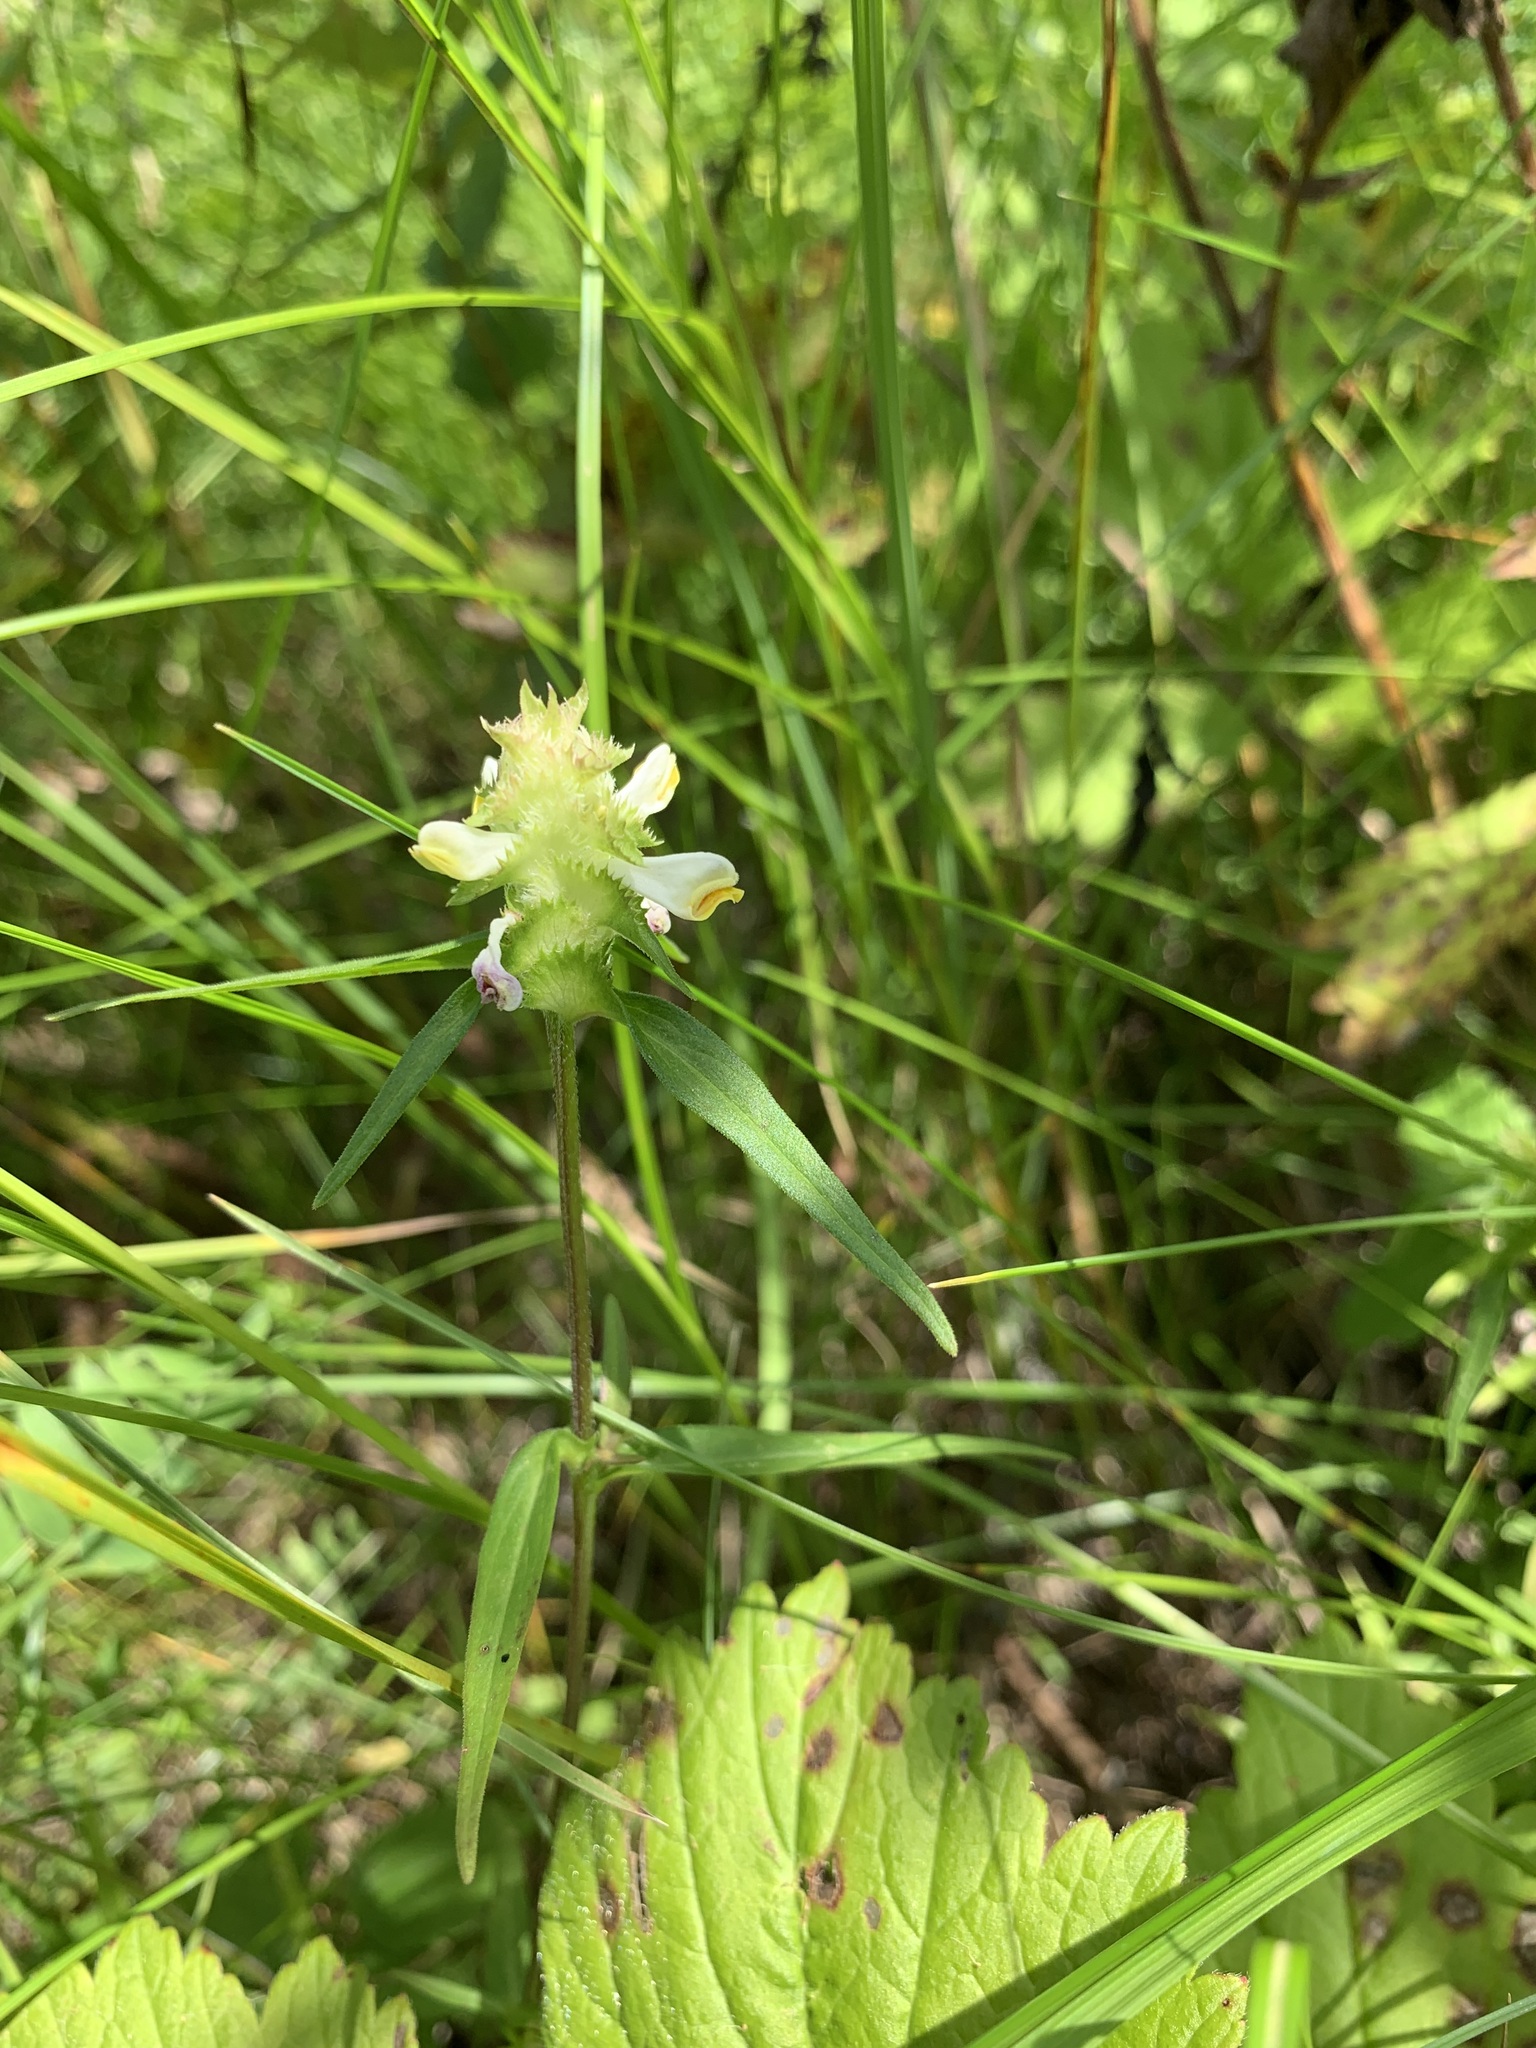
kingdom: Plantae
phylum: Tracheophyta
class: Magnoliopsida
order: Lamiales
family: Orobanchaceae
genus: Melampyrum
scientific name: Melampyrum cristatum
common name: Crested cow-wheat
